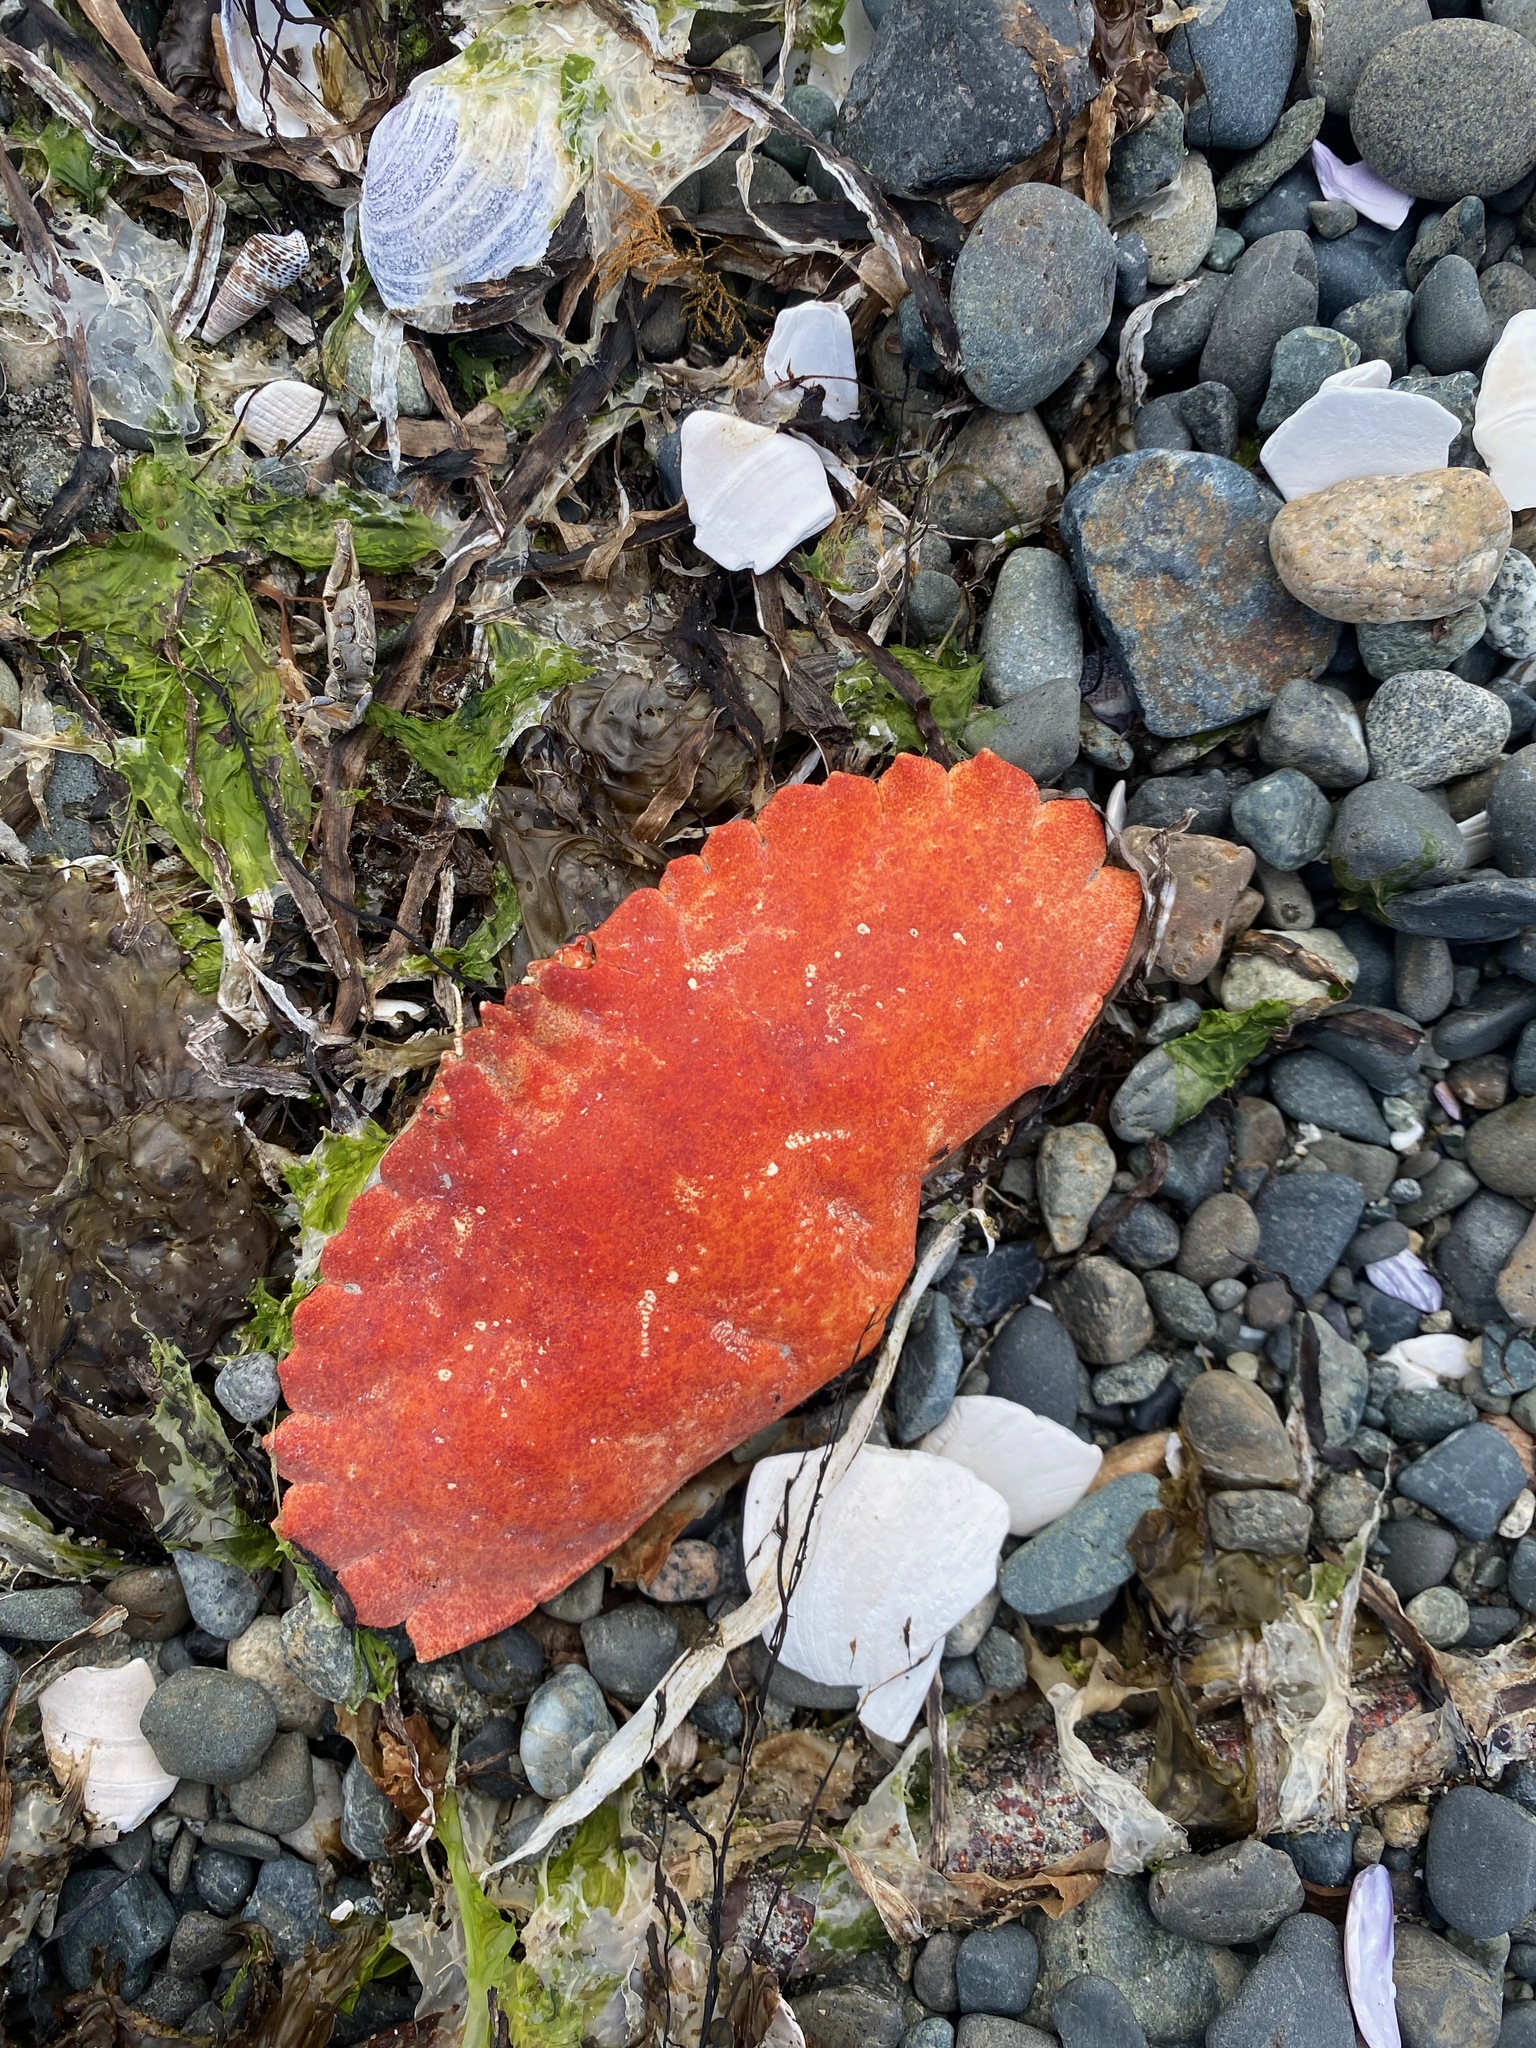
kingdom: Animalia
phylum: Arthropoda
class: Malacostraca
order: Decapoda
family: Cancridae
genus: Cancer
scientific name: Cancer productus
